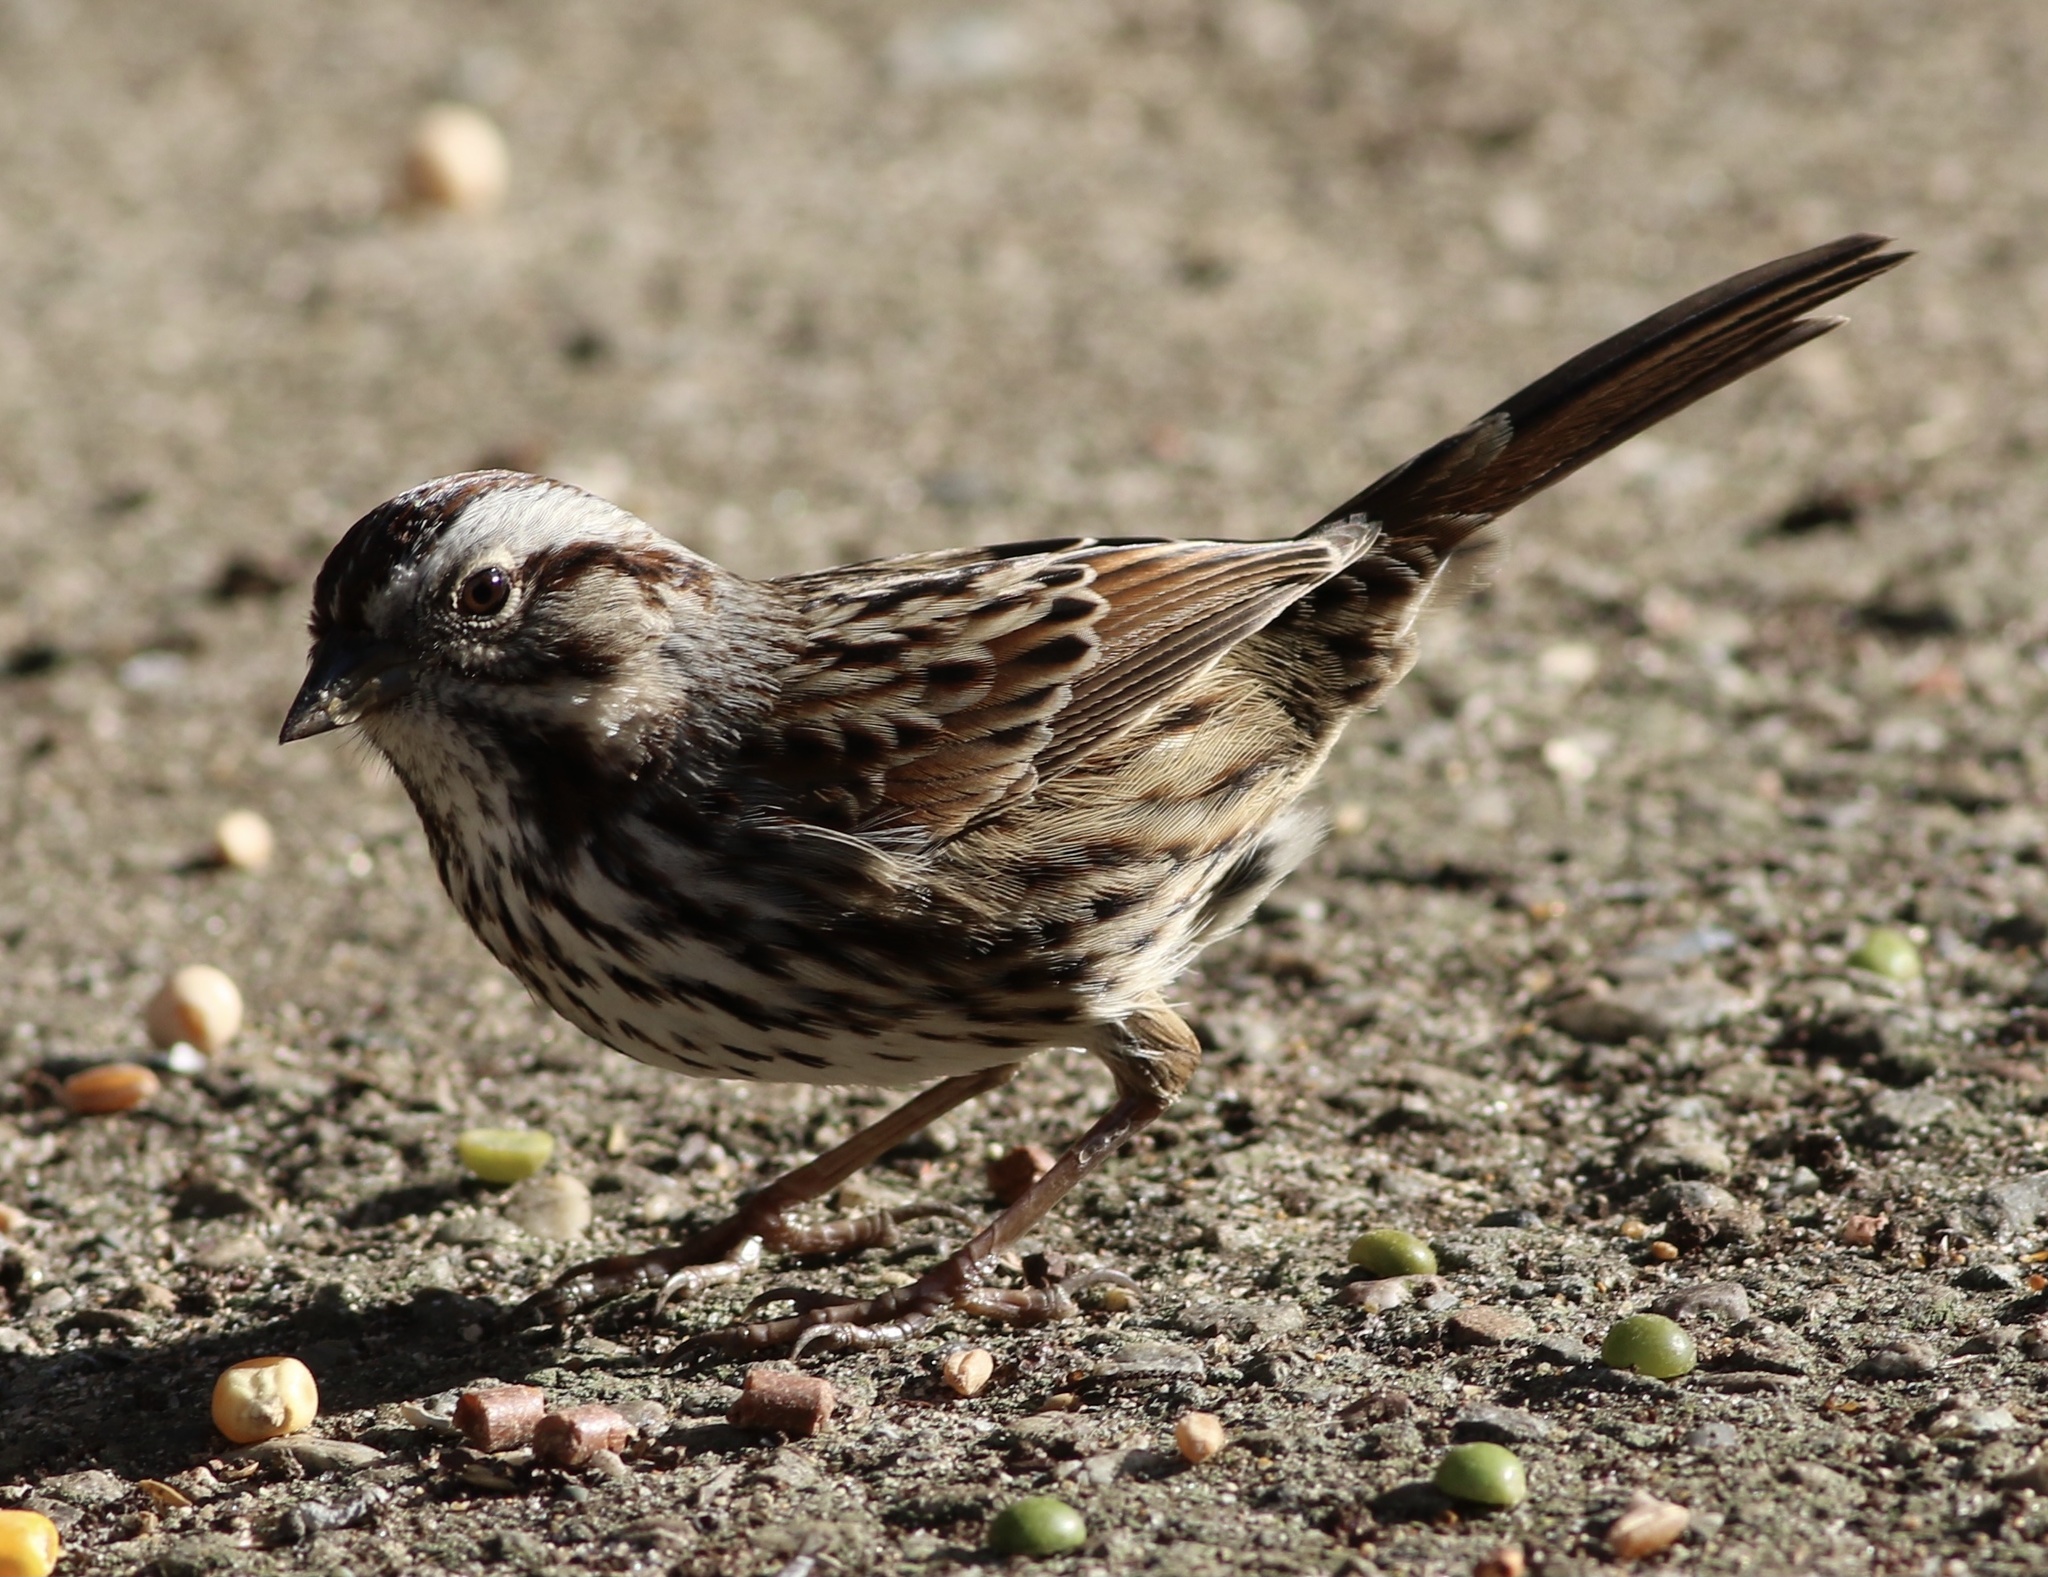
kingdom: Animalia
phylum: Chordata
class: Aves
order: Passeriformes
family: Passerellidae
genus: Melospiza
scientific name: Melospiza melodia
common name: Song sparrow
